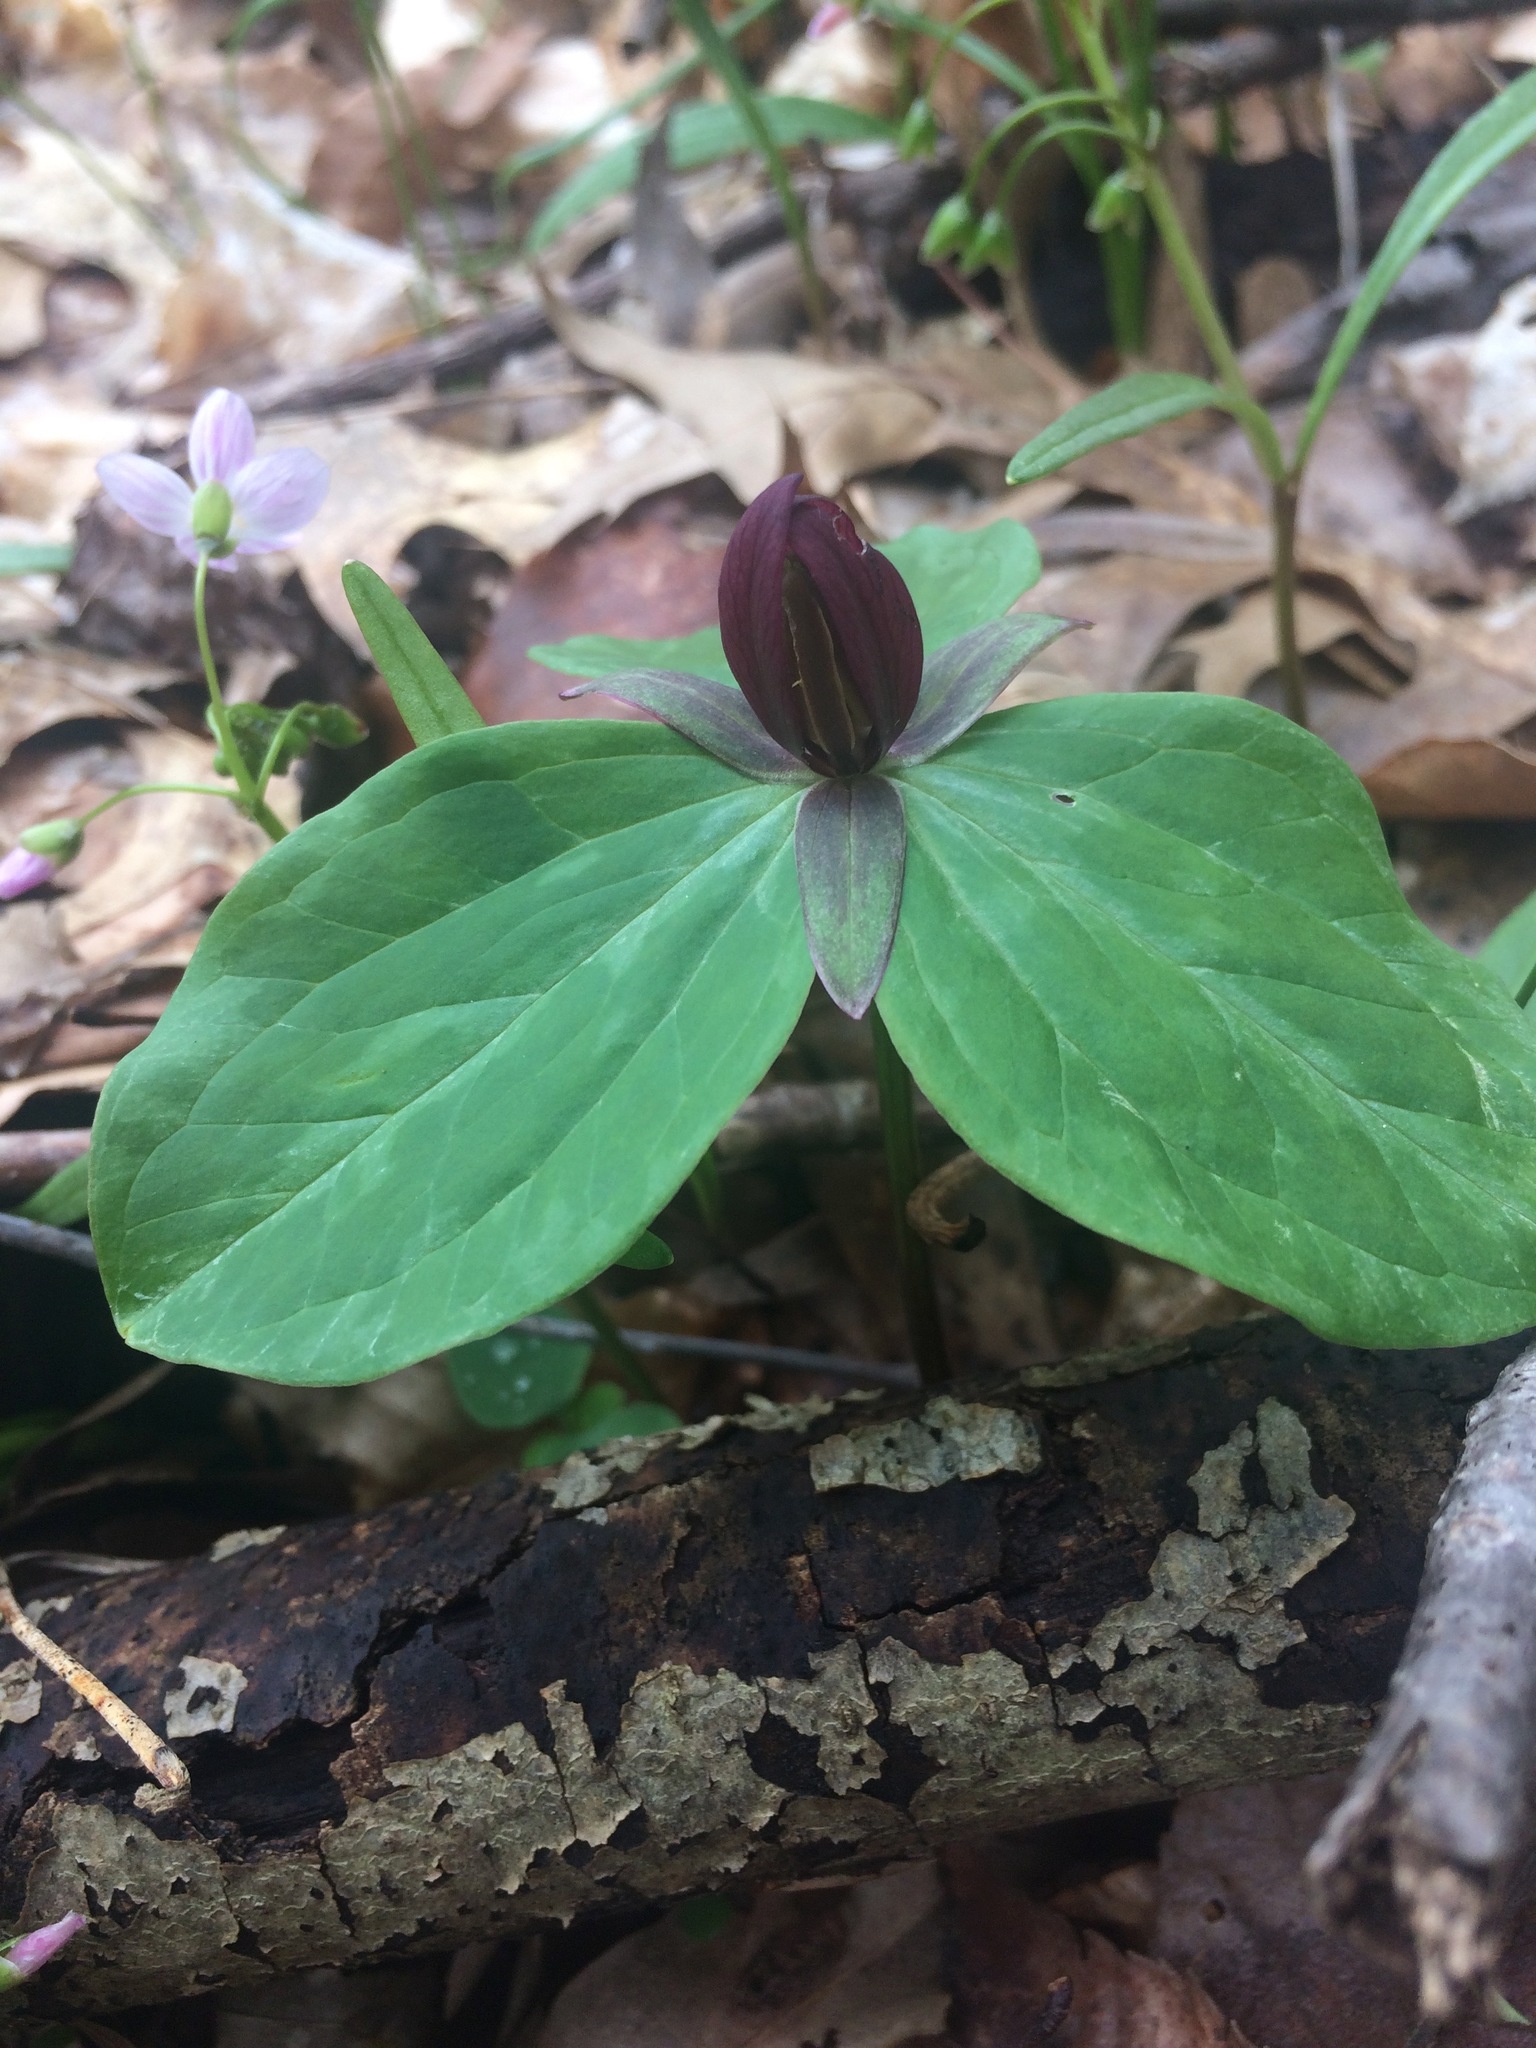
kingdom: Plantae
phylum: Tracheophyta
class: Liliopsida
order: Liliales
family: Melanthiaceae
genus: Trillium
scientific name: Trillium sessile
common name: Sessile trillium
